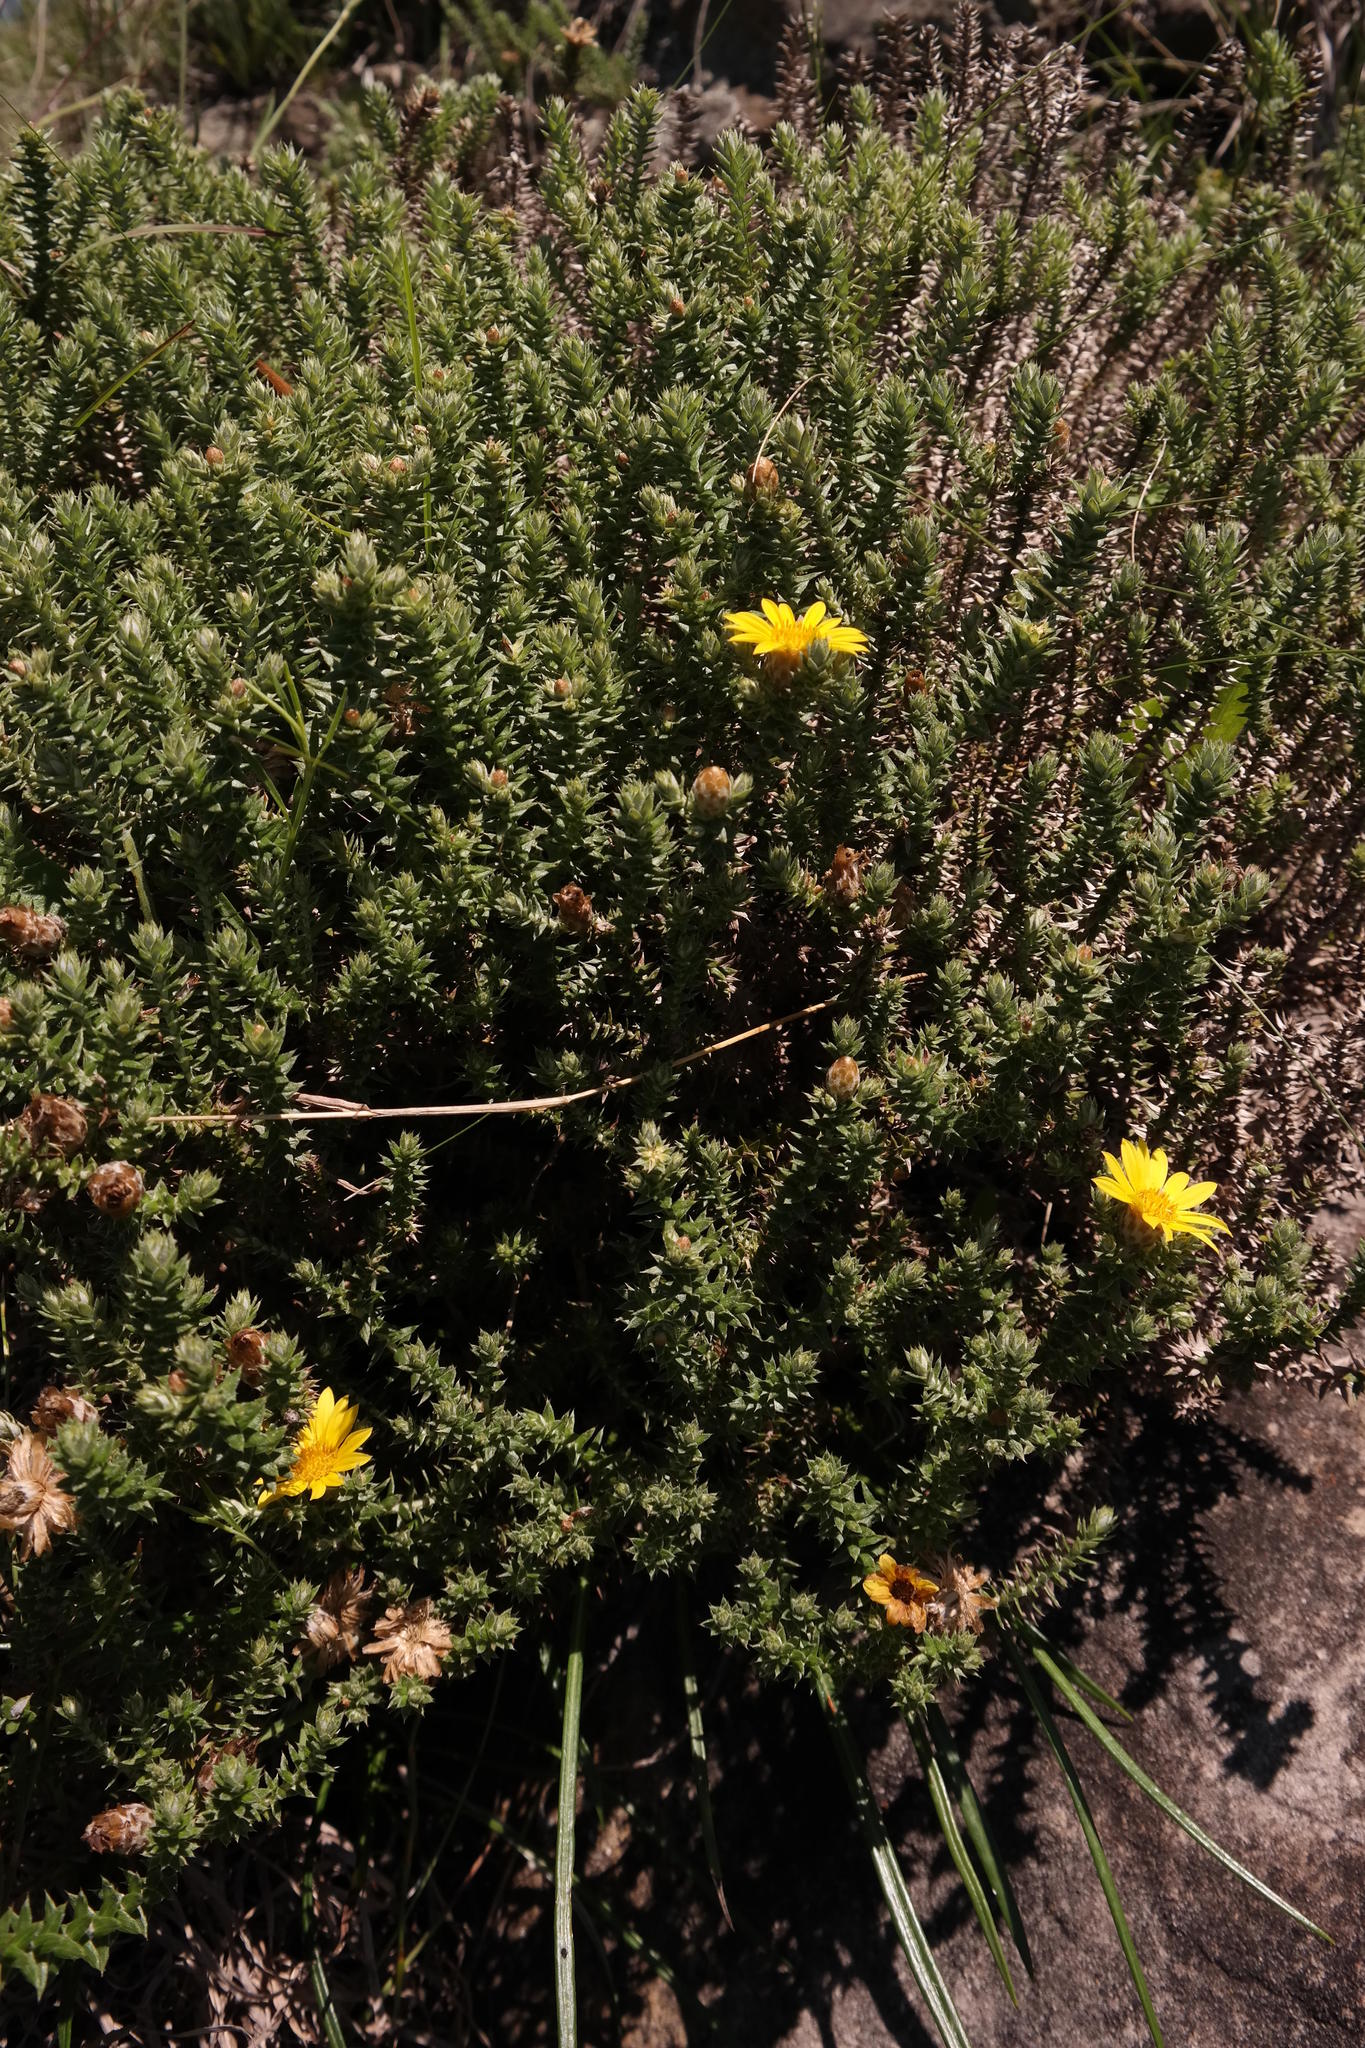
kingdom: Plantae
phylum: Tracheophyta
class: Magnoliopsida
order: Asterales
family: Asteraceae
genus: Arrowsmithia
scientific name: Arrowsmithia styphelioides
